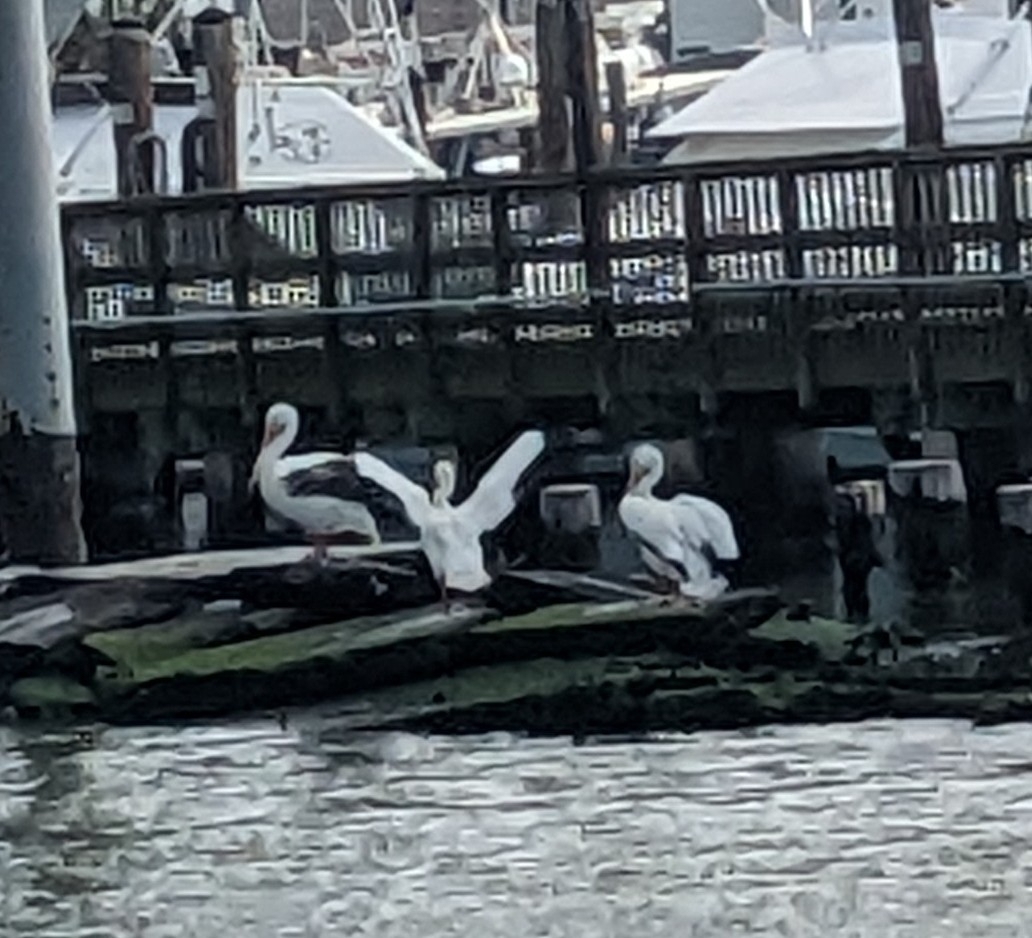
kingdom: Animalia
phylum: Chordata
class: Aves
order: Pelecaniformes
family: Pelecanidae
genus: Pelecanus
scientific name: Pelecanus erythrorhynchos
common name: American white pelican
